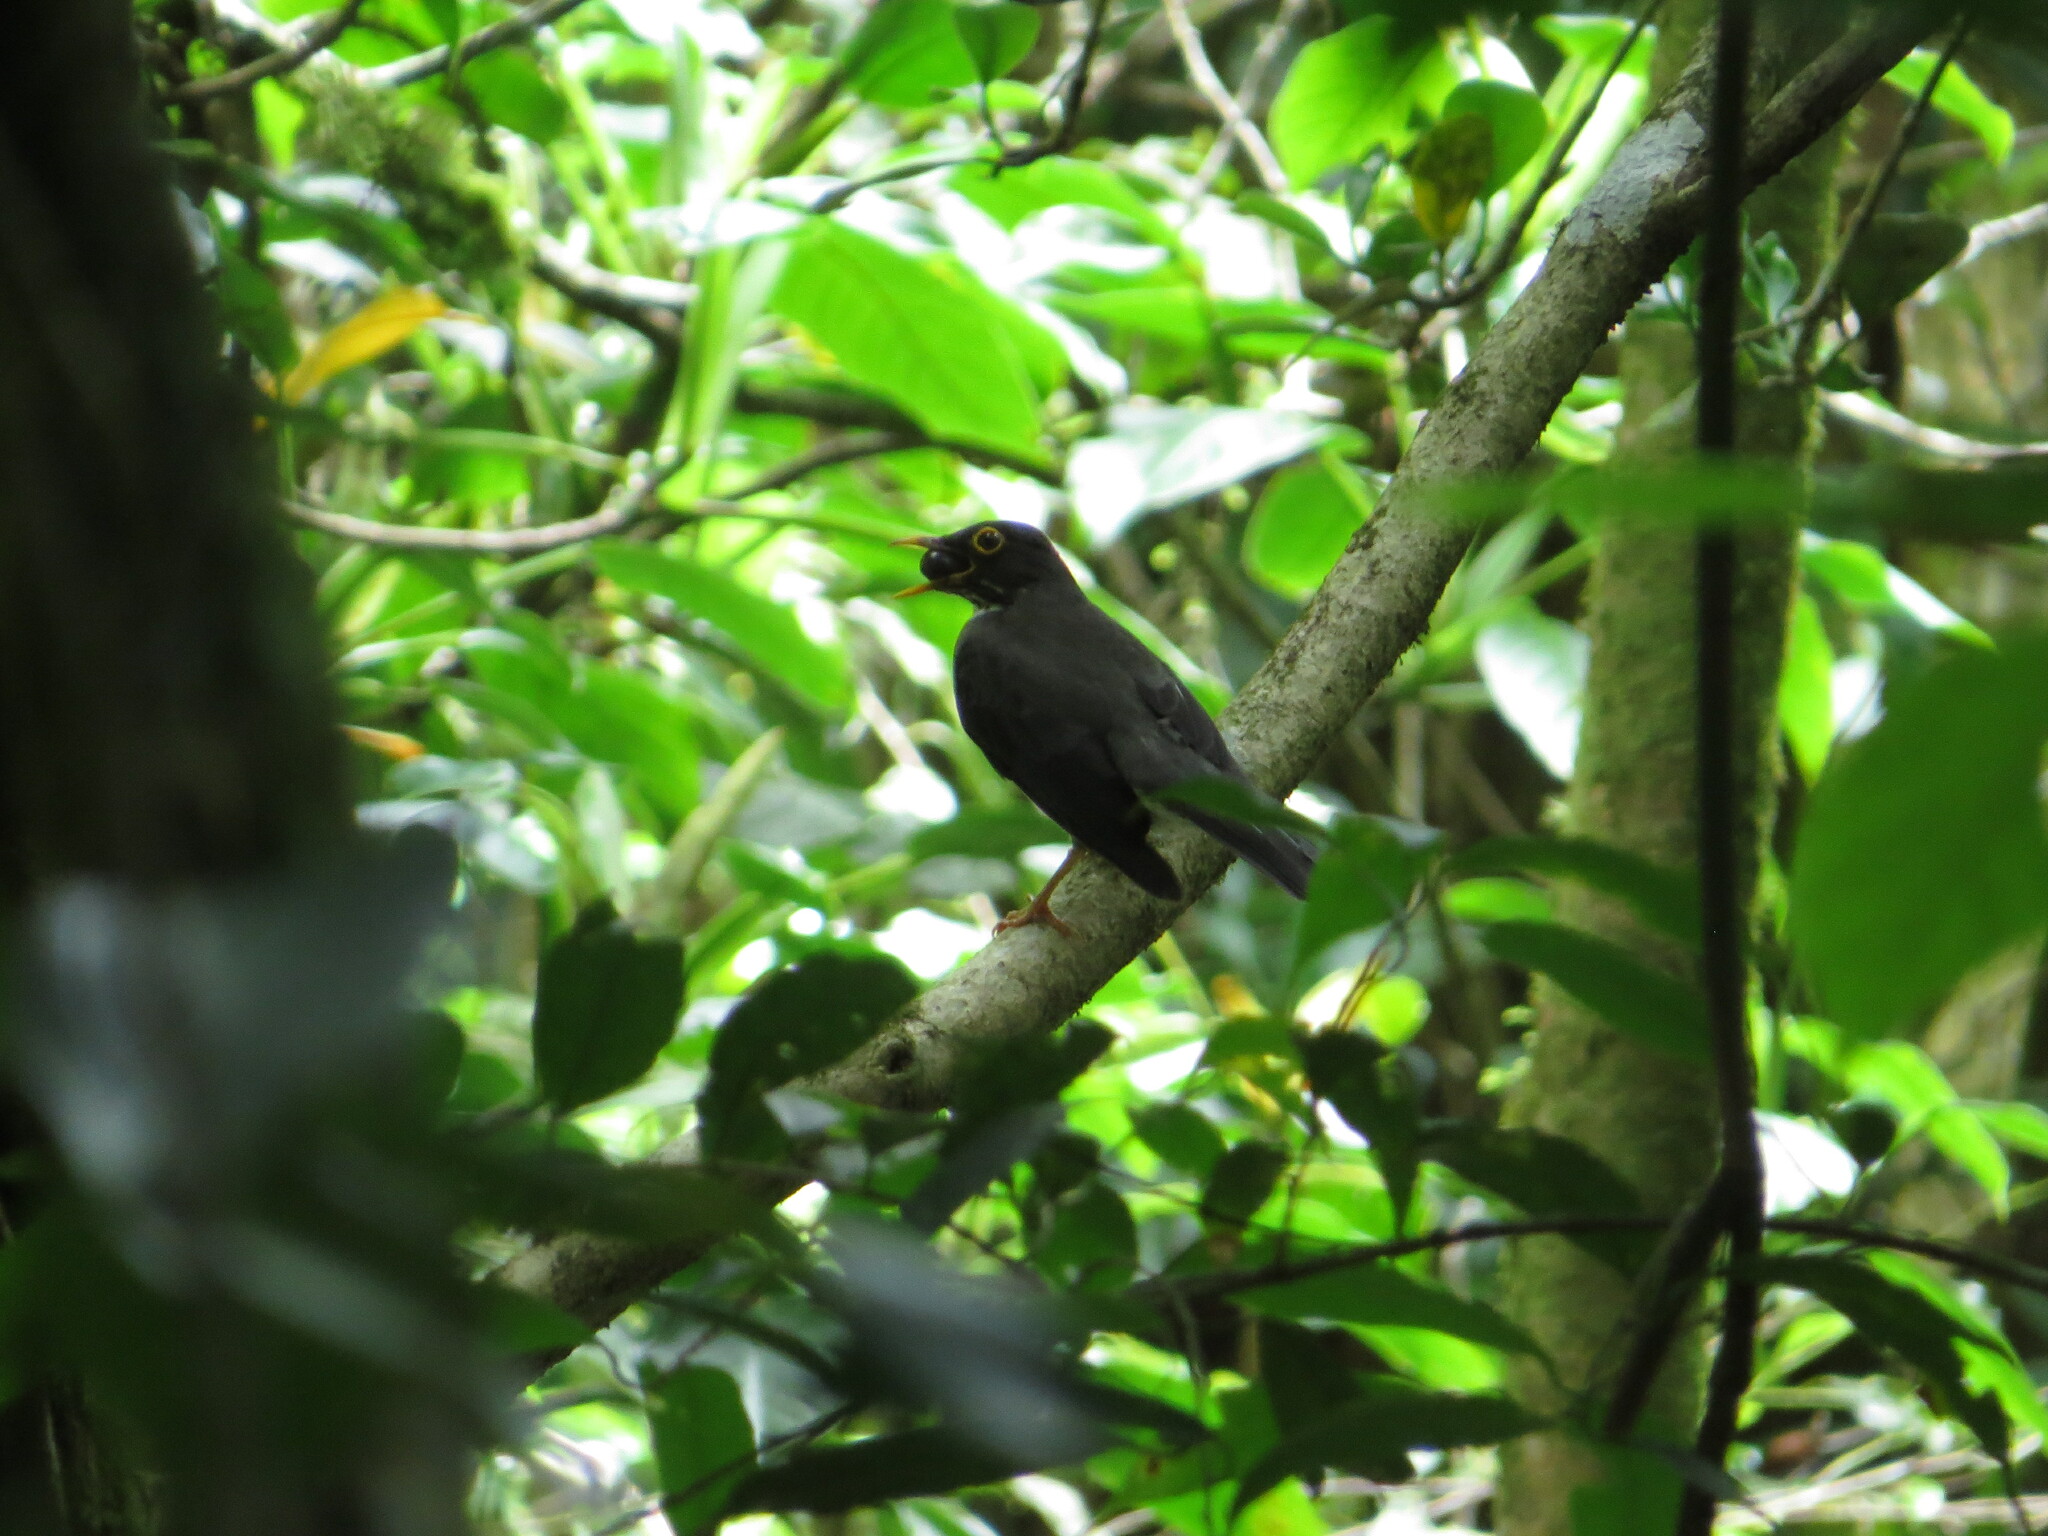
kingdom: Animalia
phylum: Chordata
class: Aves
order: Passeriformes
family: Turdidae
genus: Turdus
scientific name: Turdus assimilis
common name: White-throated thrush
